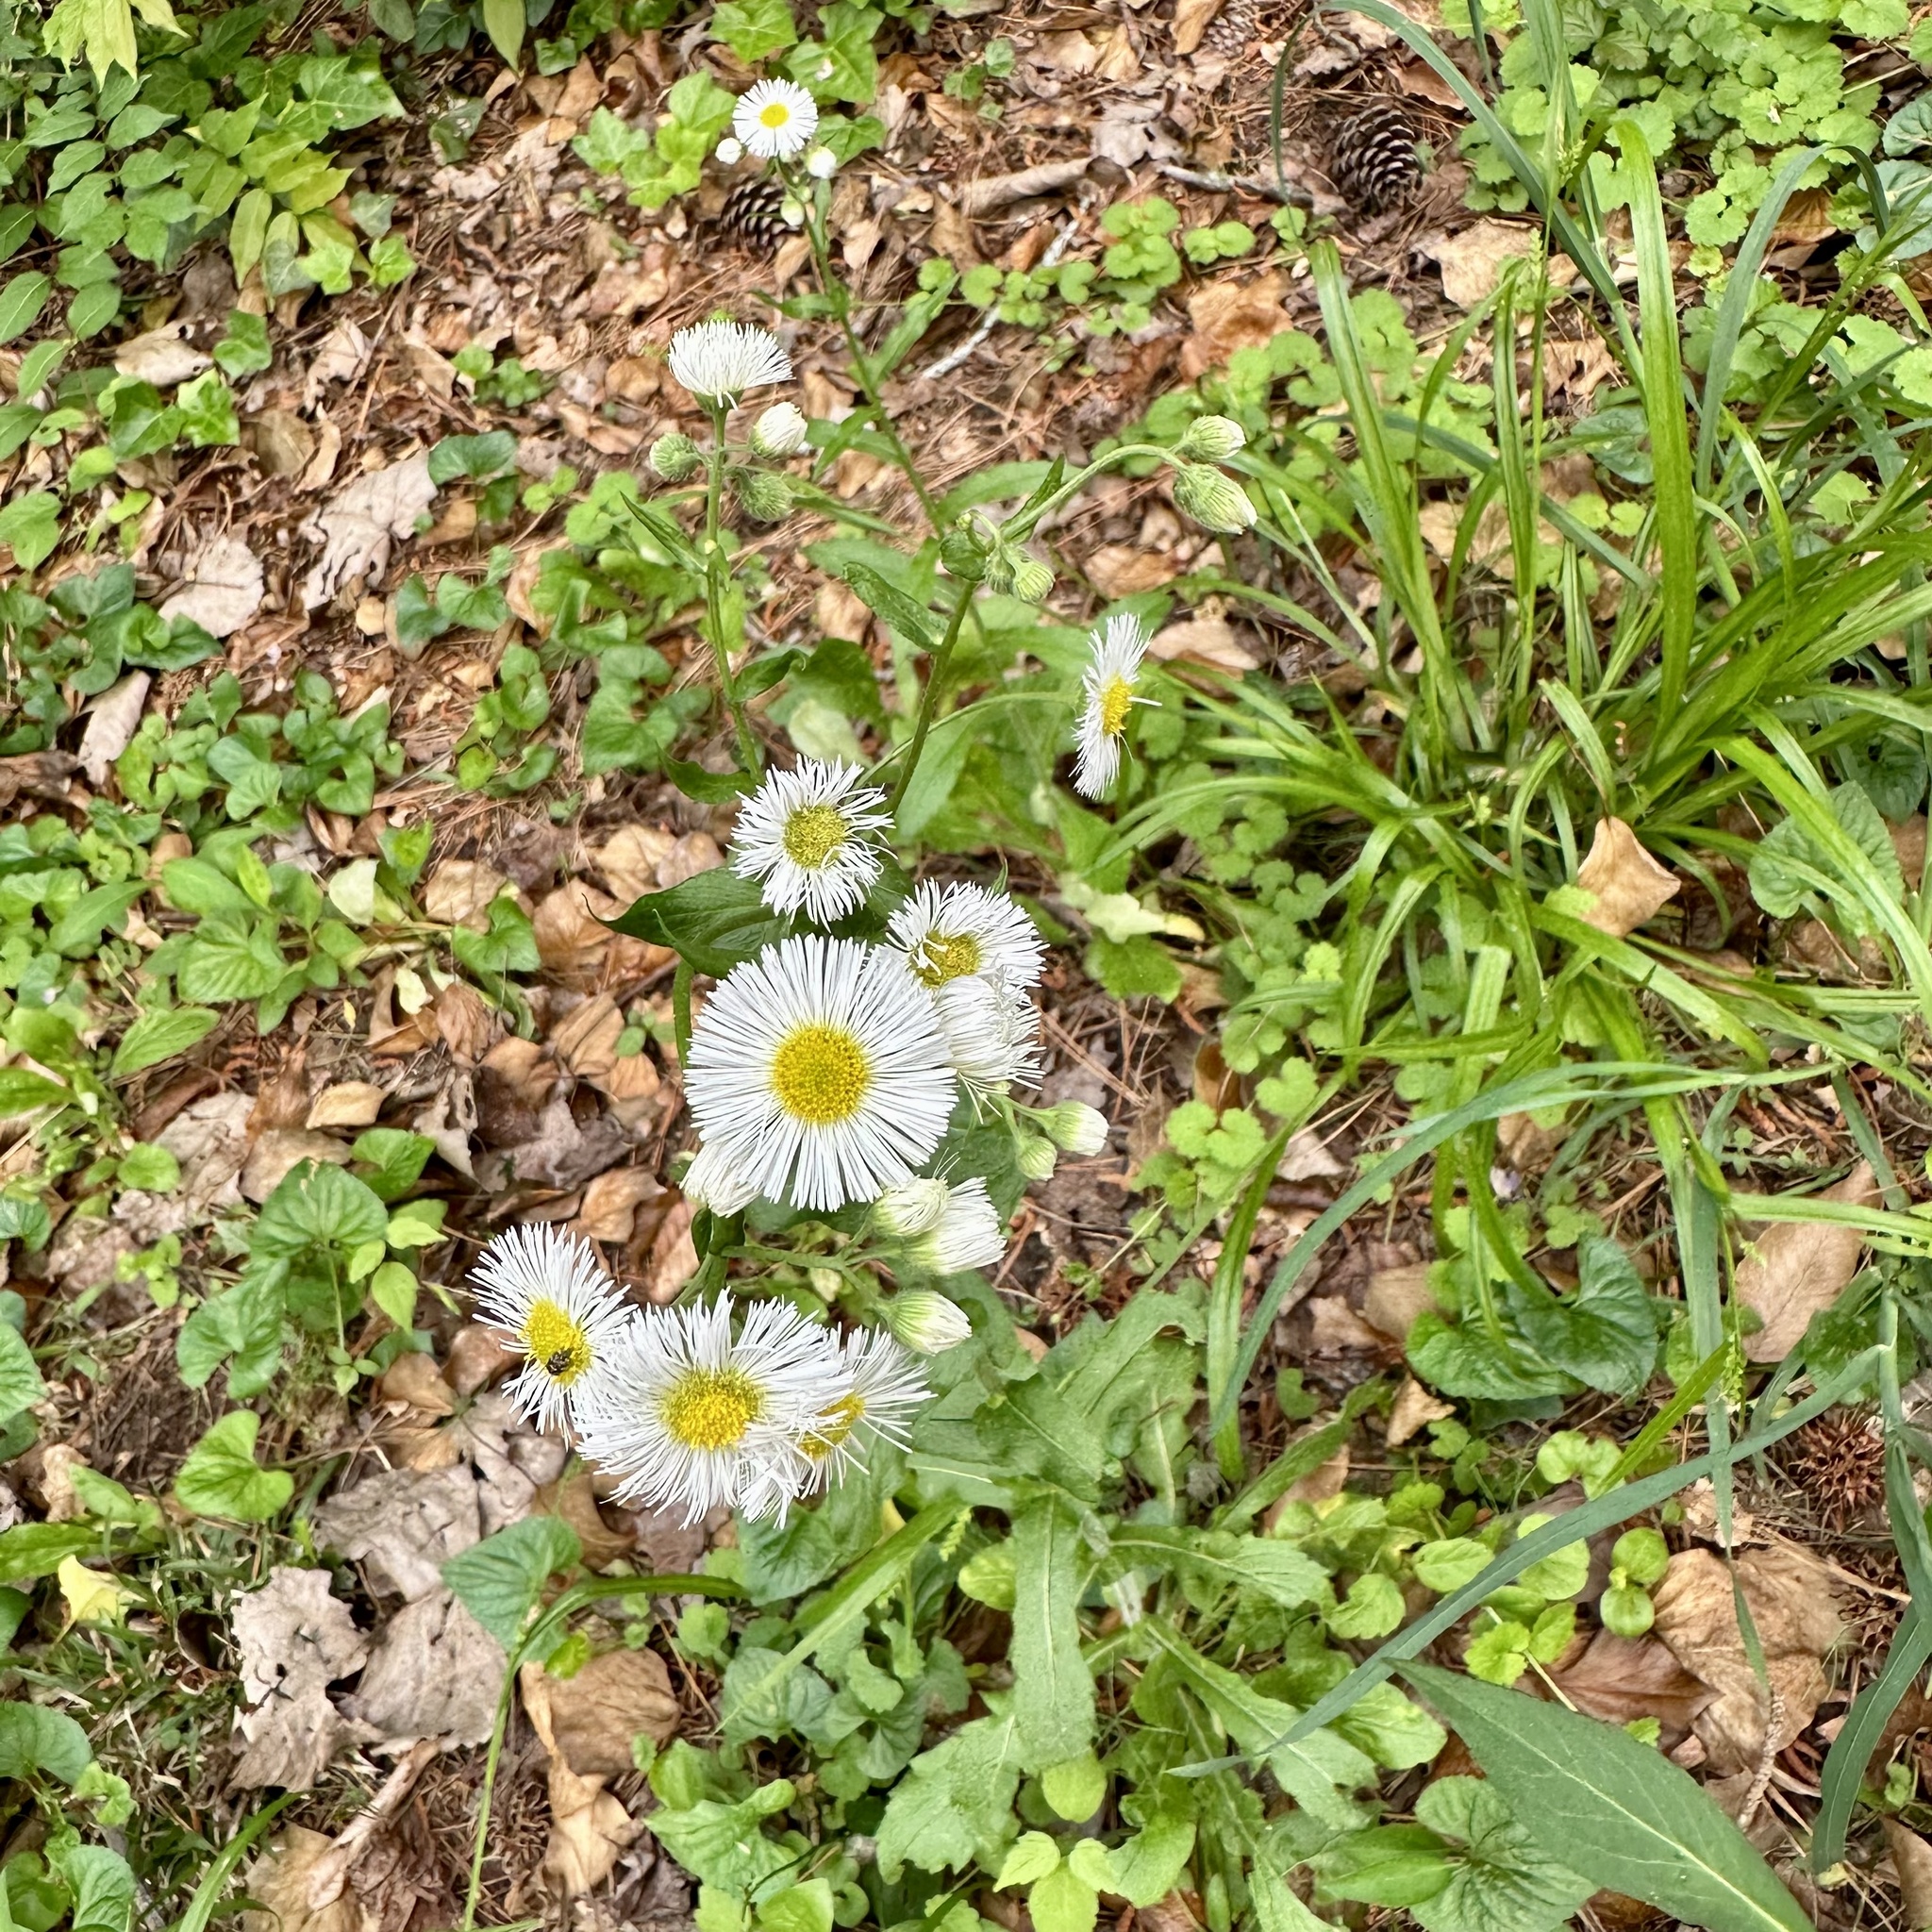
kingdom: Plantae
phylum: Tracheophyta
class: Magnoliopsida
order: Asterales
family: Asteraceae
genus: Erigeron
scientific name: Erigeron philadelphicus
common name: Robin's-plantain
